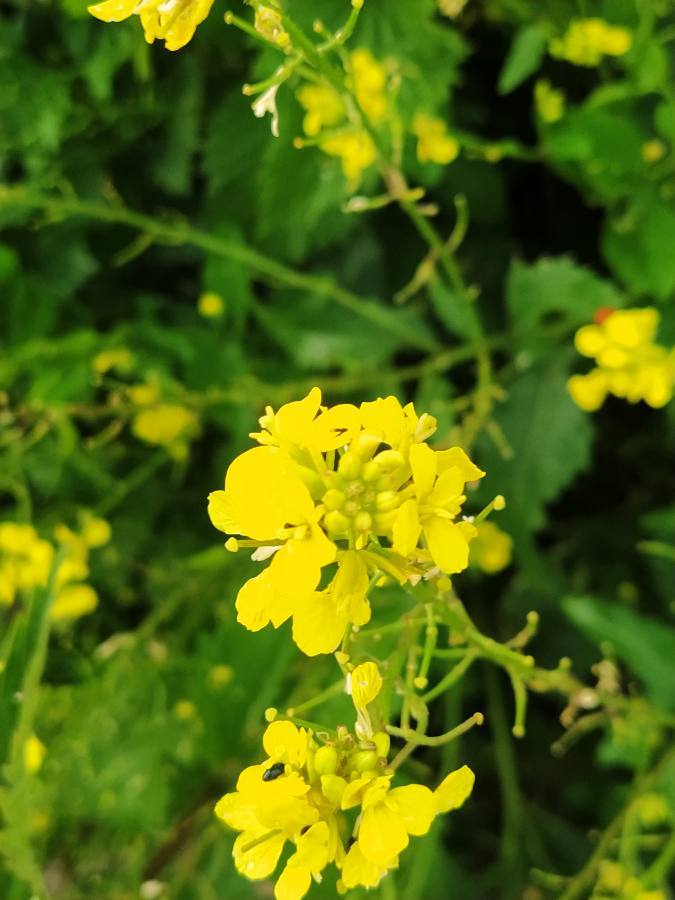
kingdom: Plantae
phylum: Tracheophyta
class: Magnoliopsida
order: Brassicales
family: Brassicaceae
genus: Sinapis
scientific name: Sinapis arvensis
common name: Charlock
